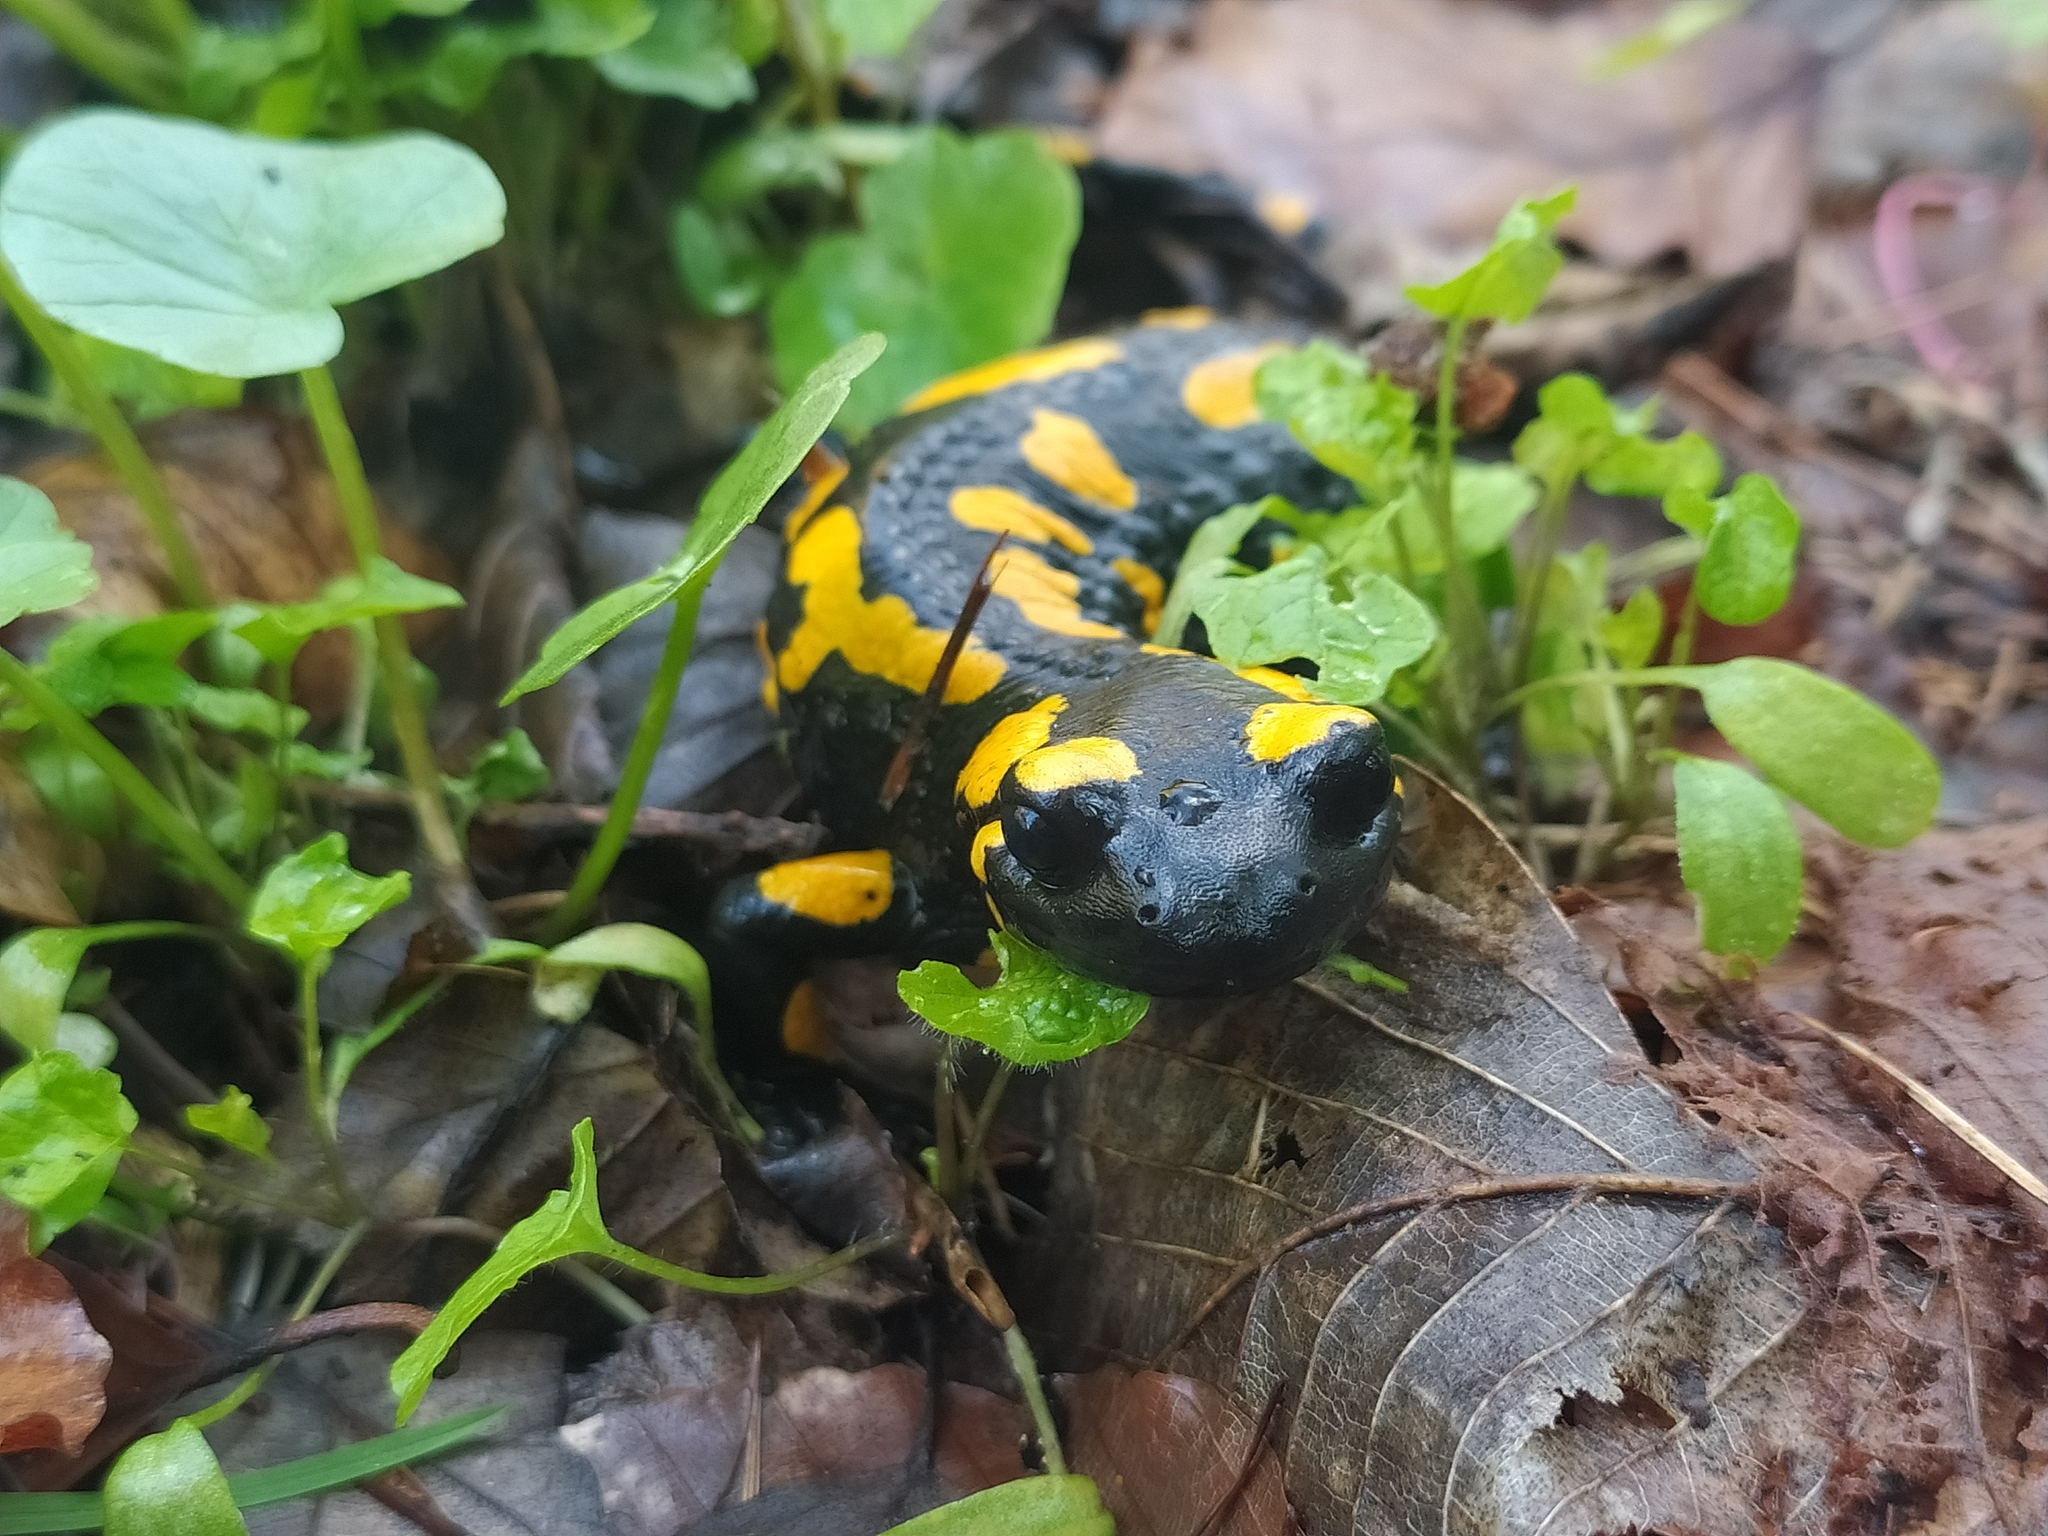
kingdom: Animalia
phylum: Chordata
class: Amphibia
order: Caudata
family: Salamandridae
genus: Salamandra
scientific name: Salamandra salamandra
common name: Fire salamander
